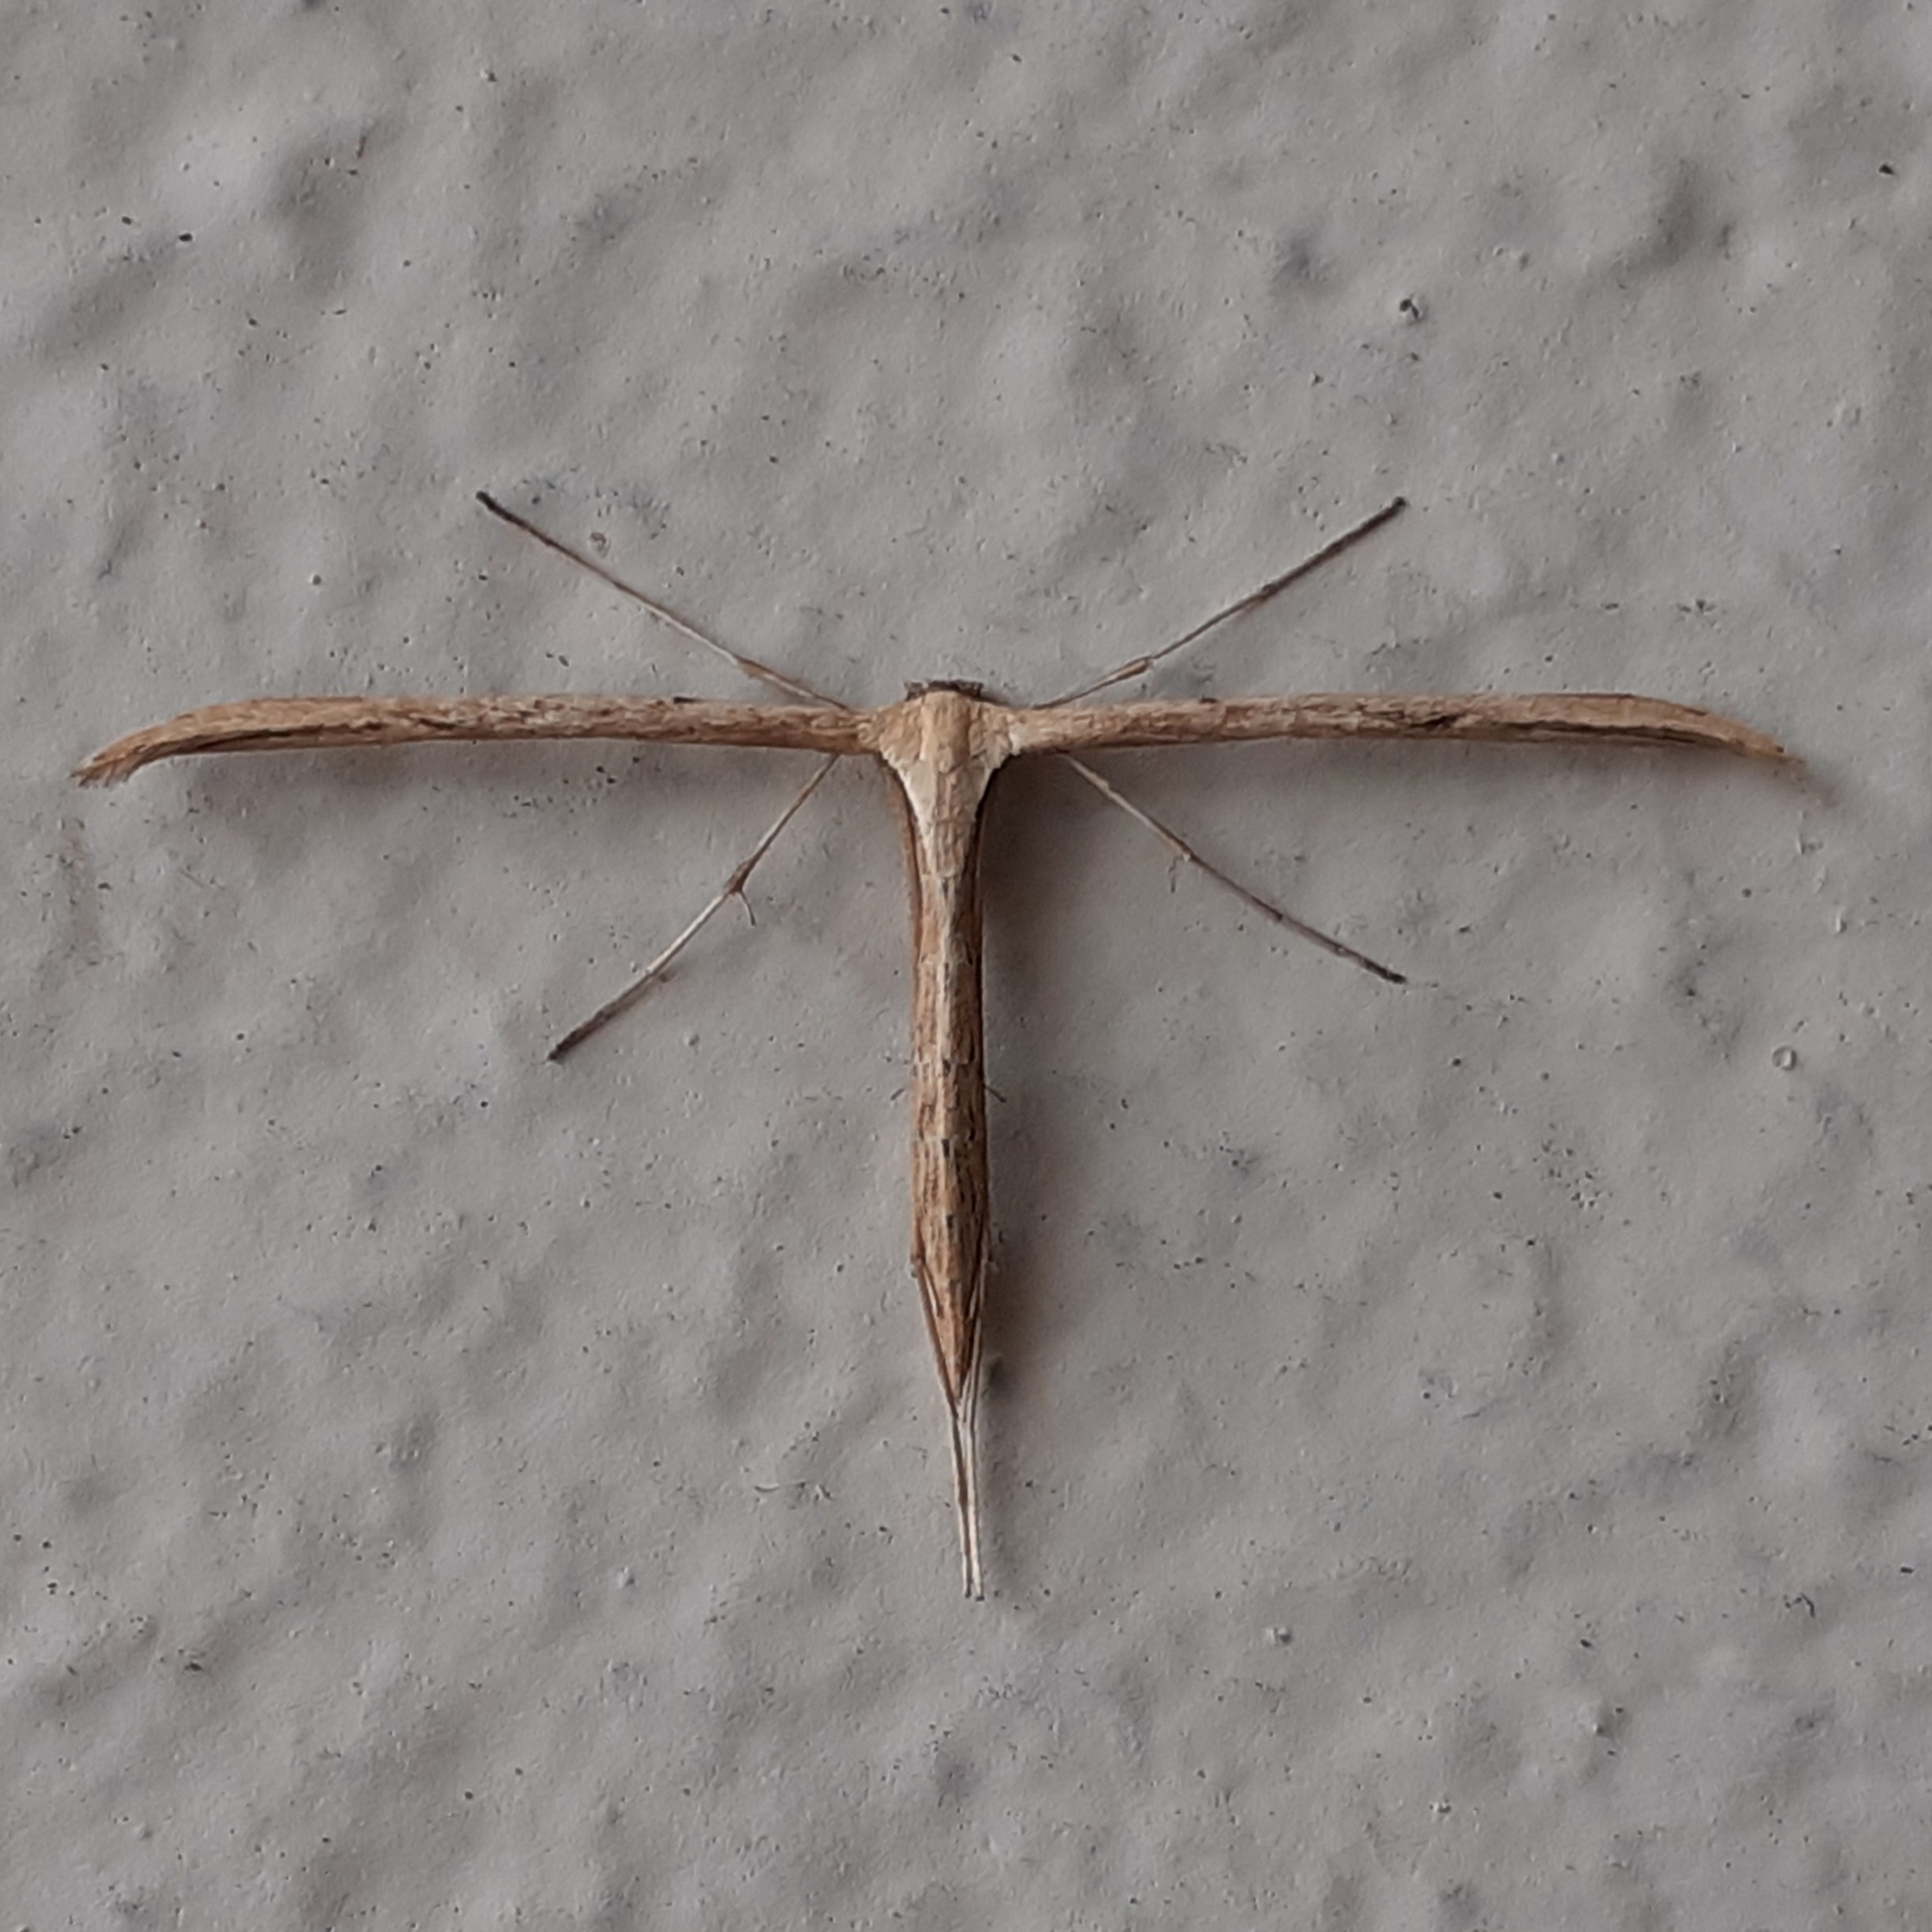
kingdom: Animalia
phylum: Arthropoda
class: Insecta
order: Lepidoptera
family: Pterophoridae
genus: Emmelina
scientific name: Emmelina monodactyla
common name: Common plume
